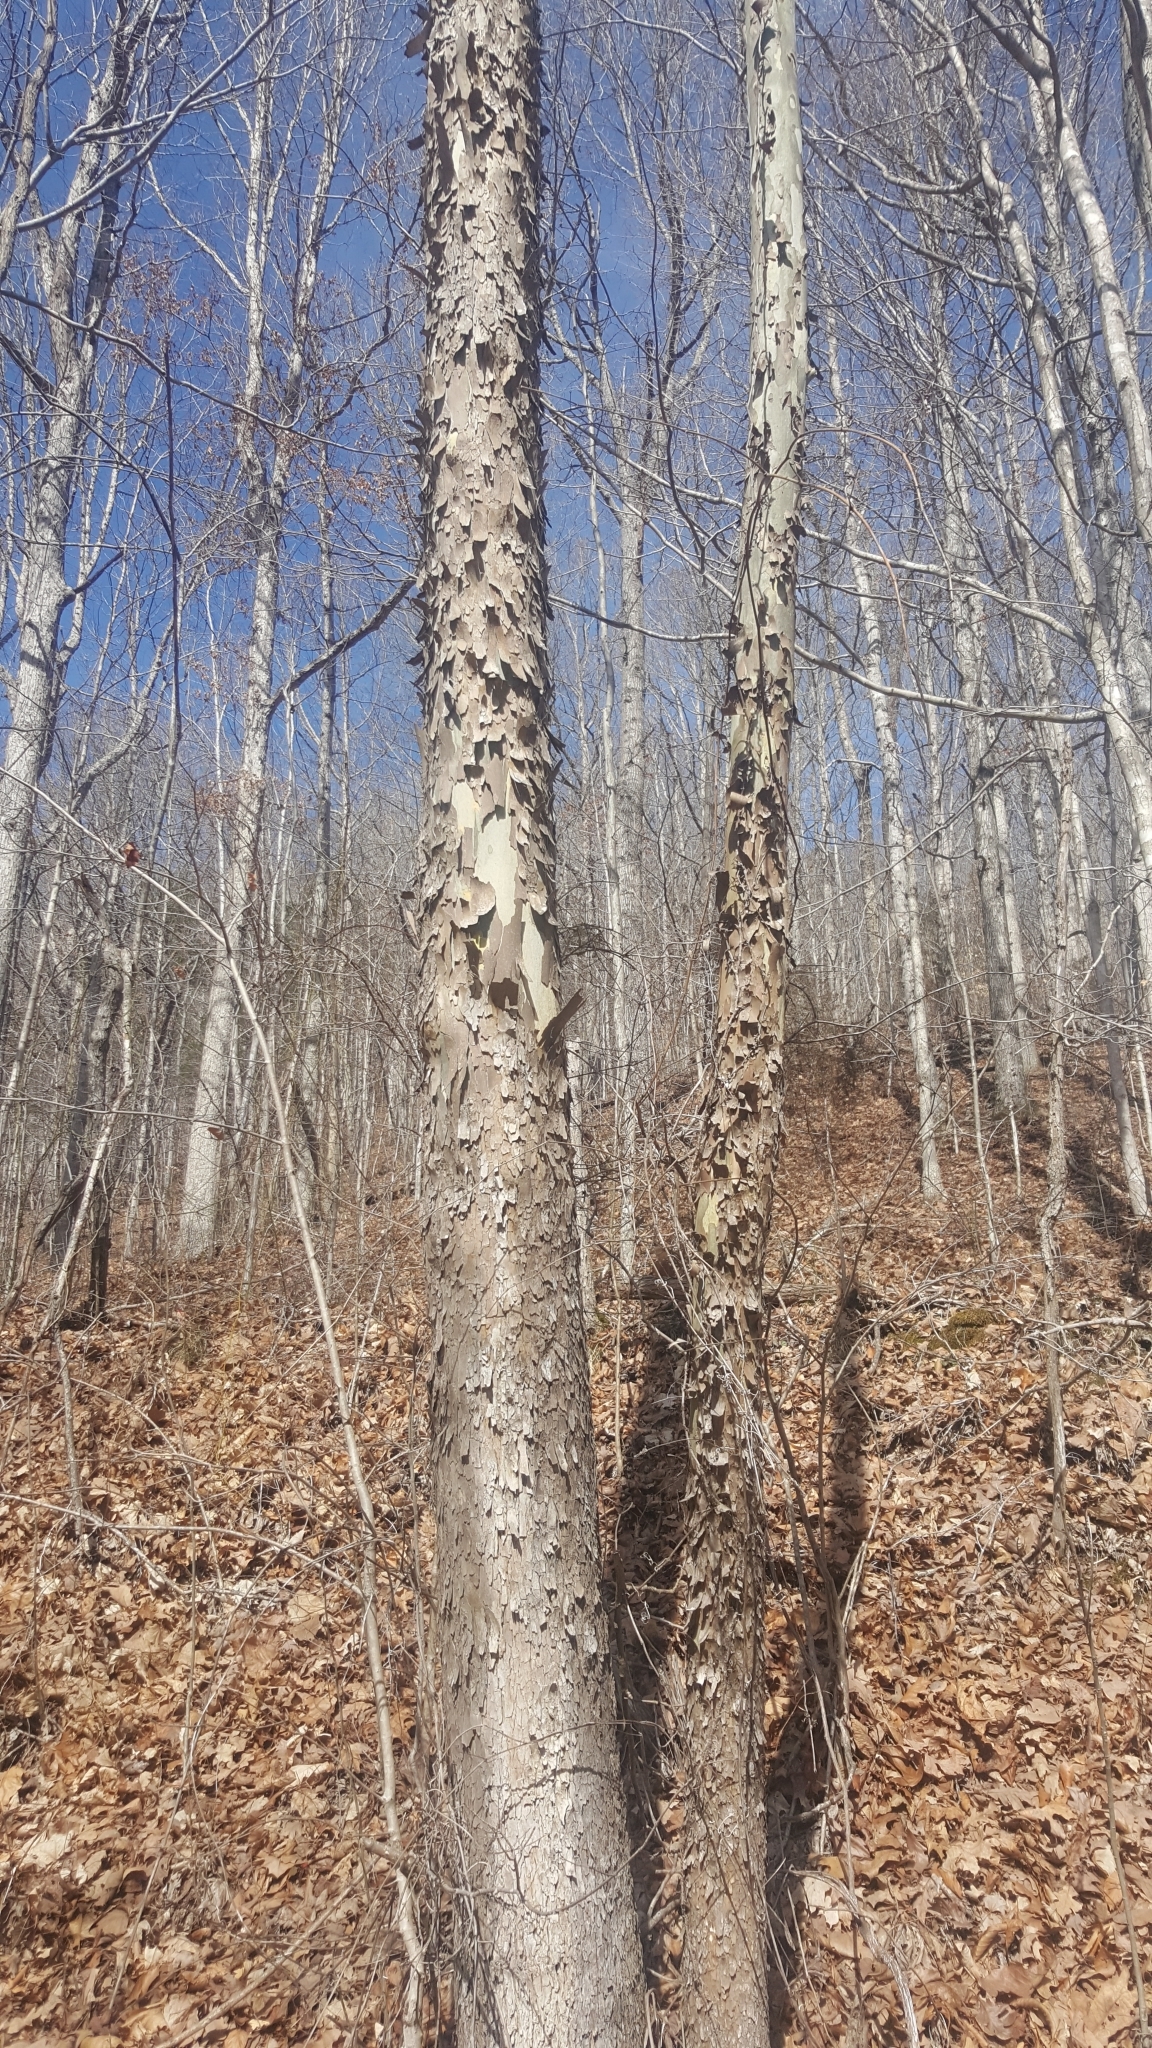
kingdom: Plantae
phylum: Tracheophyta
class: Magnoliopsida
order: Proteales
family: Platanaceae
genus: Platanus
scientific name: Platanus occidentalis
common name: American sycamore
